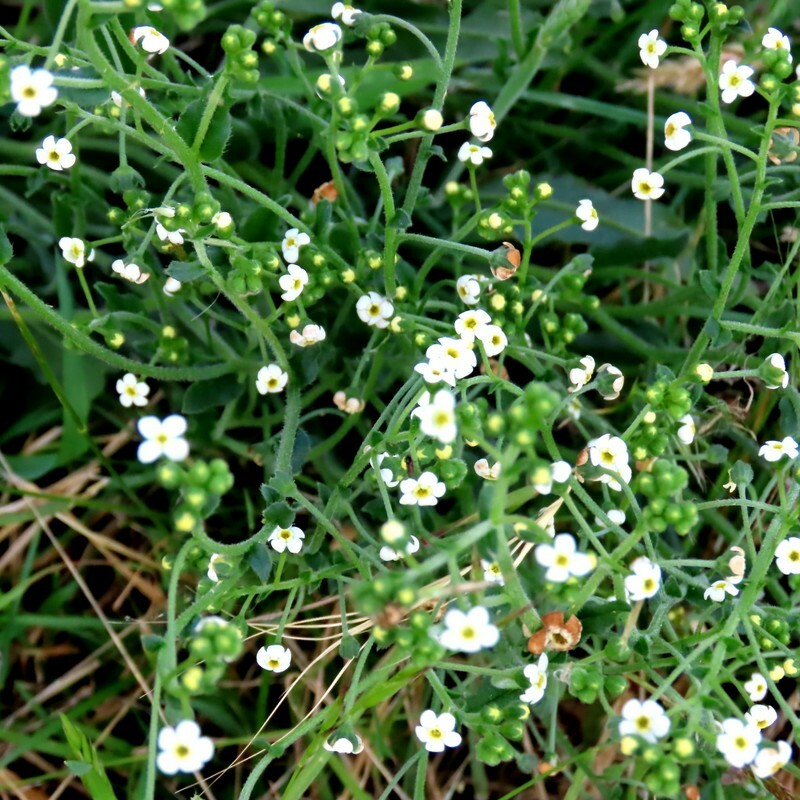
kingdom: Plantae
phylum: Tracheophyta
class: Magnoliopsida
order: Boraginales
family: Boraginaceae
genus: Hackelia
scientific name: Hackelia suaveolens
